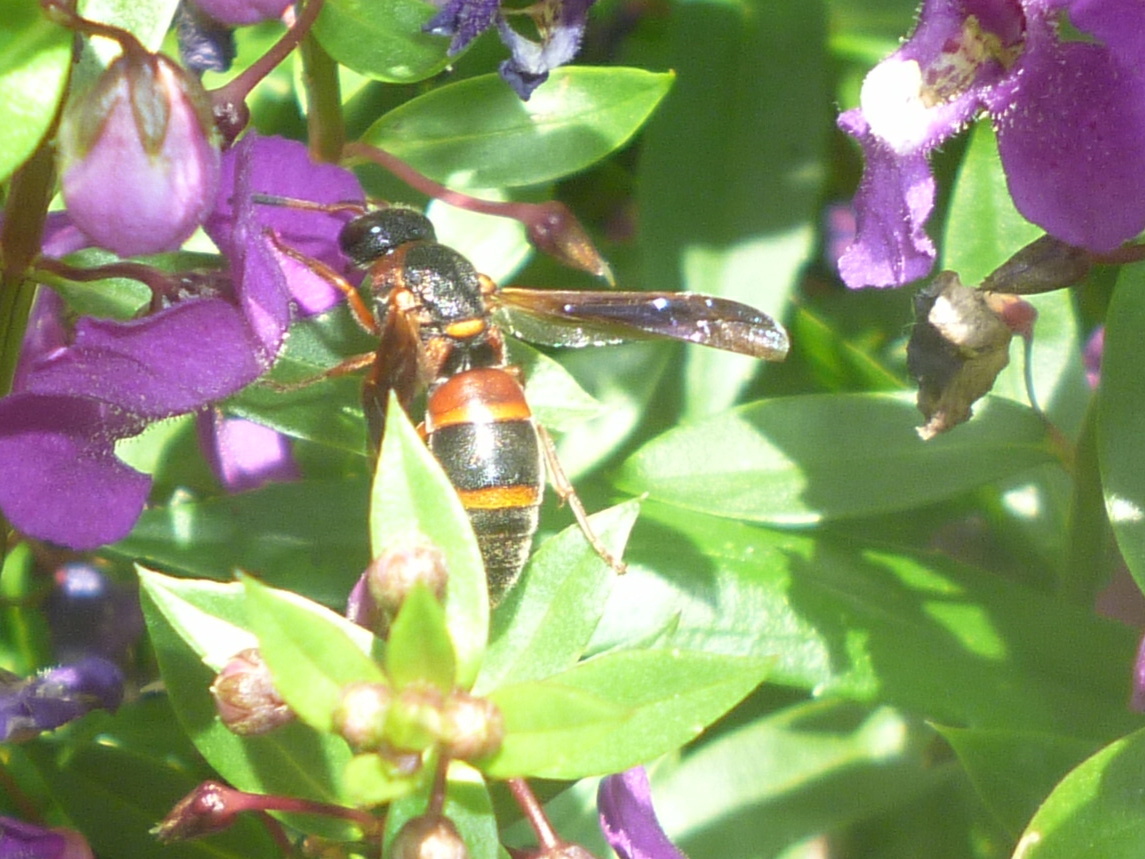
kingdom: Animalia
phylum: Arthropoda
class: Insecta
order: Hymenoptera
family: Eumenidae
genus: Pachodynerus
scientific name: Pachodynerus erynnis
